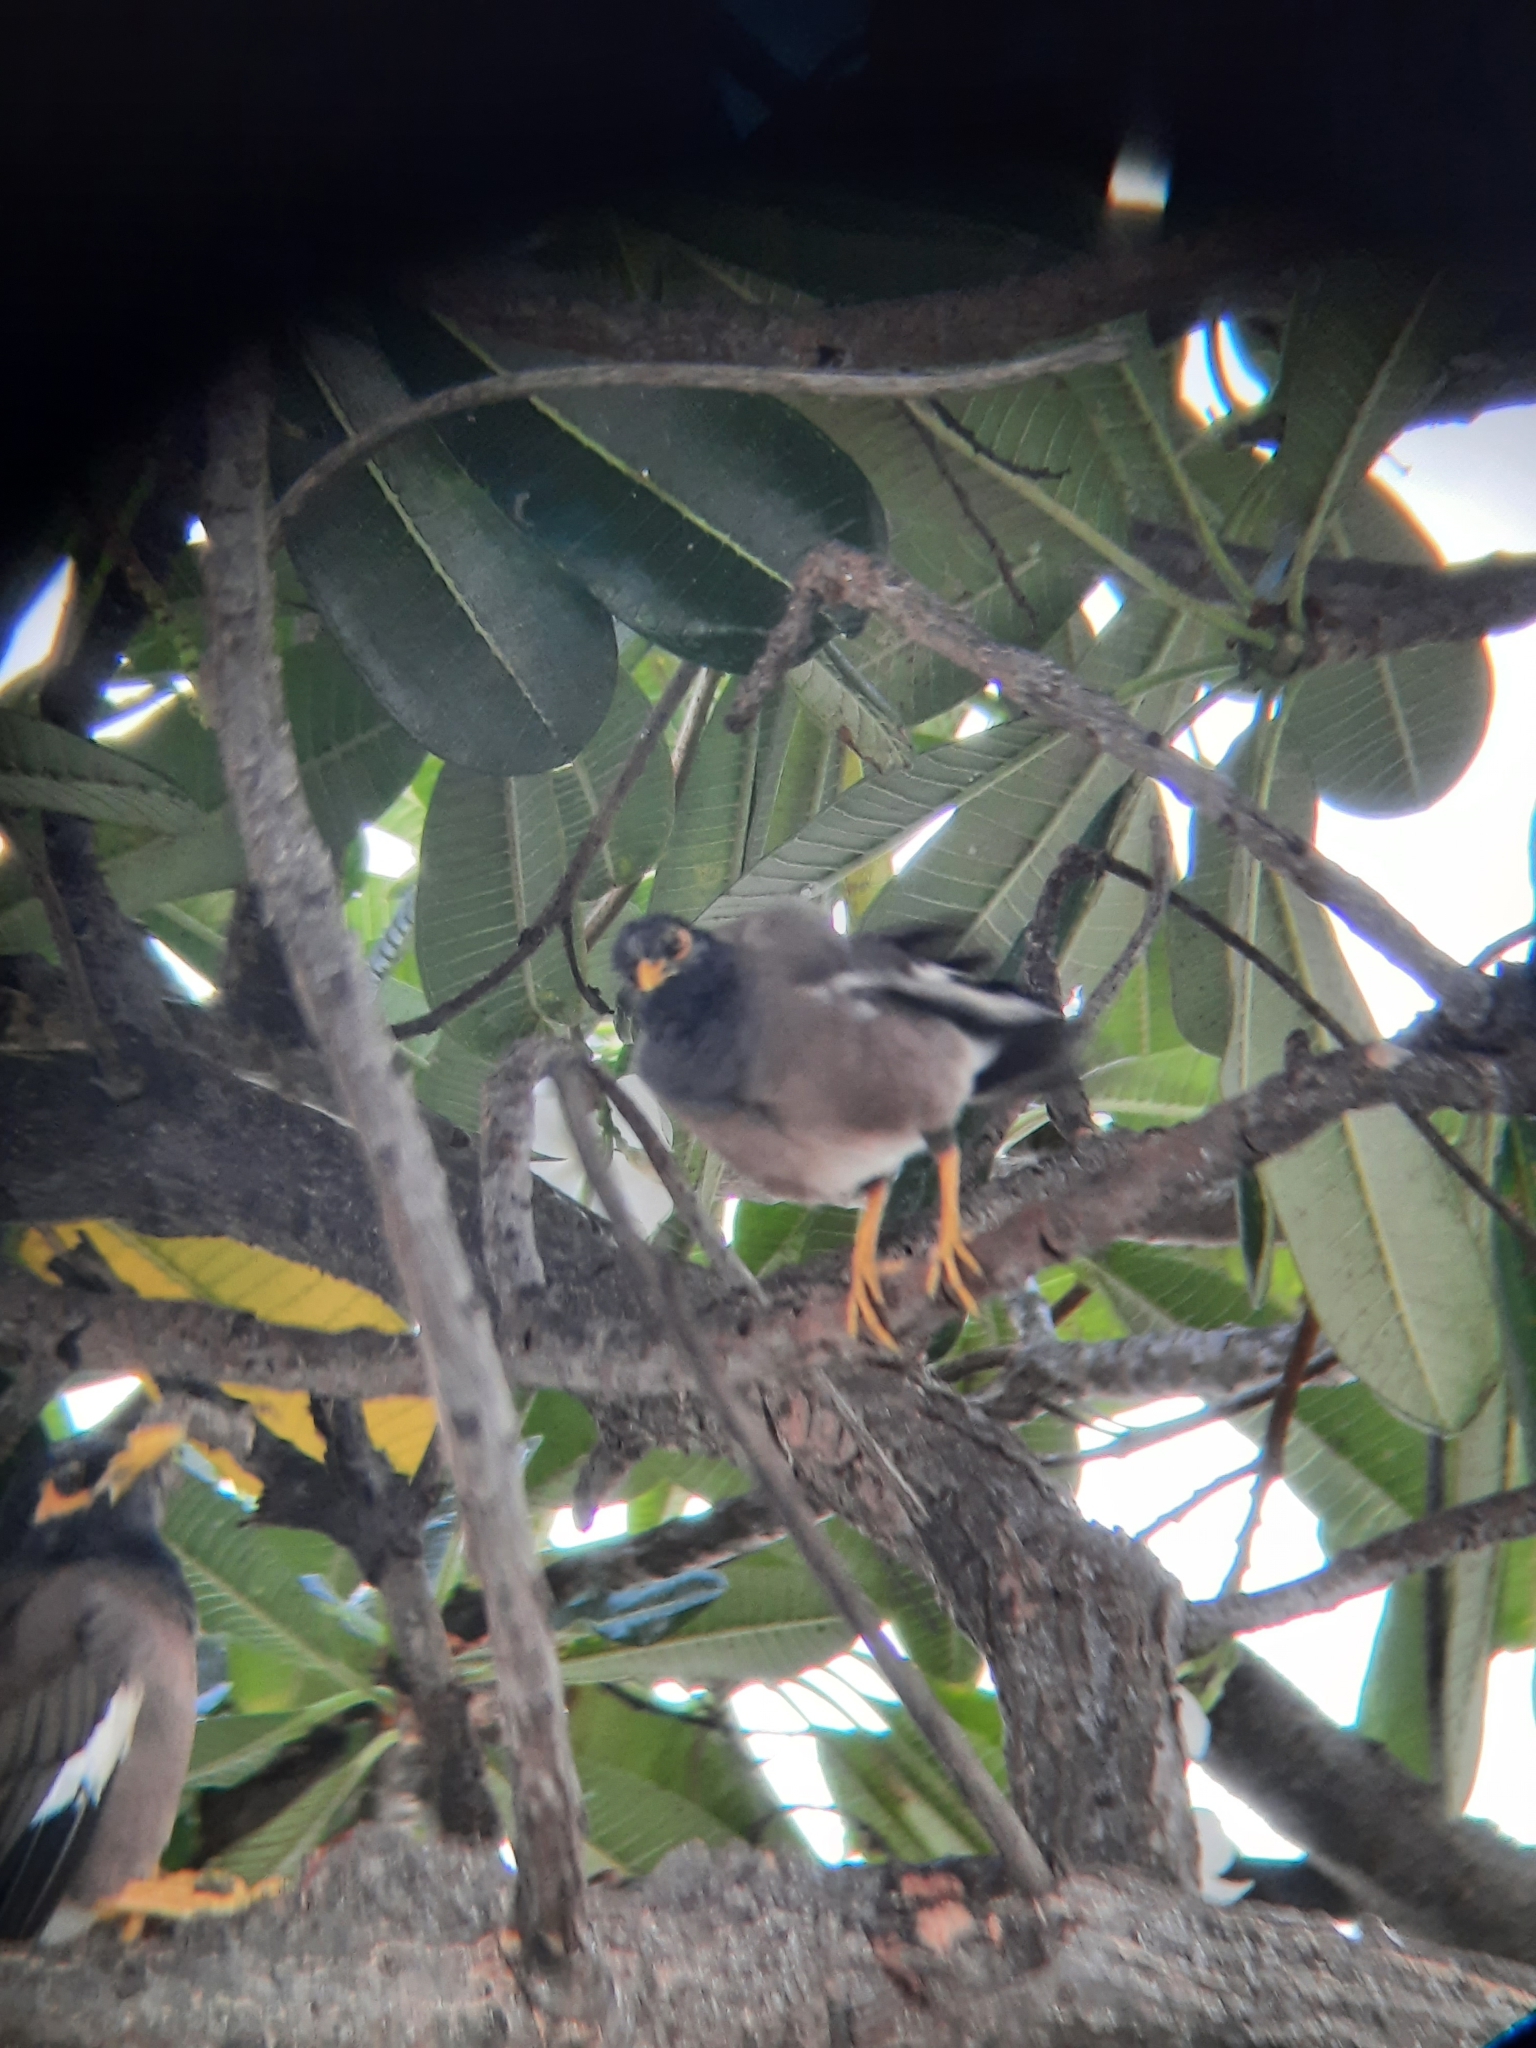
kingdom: Animalia
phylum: Chordata
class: Aves
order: Passeriformes
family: Sturnidae
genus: Acridotheres
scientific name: Acridotheres tristis
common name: Common myna
